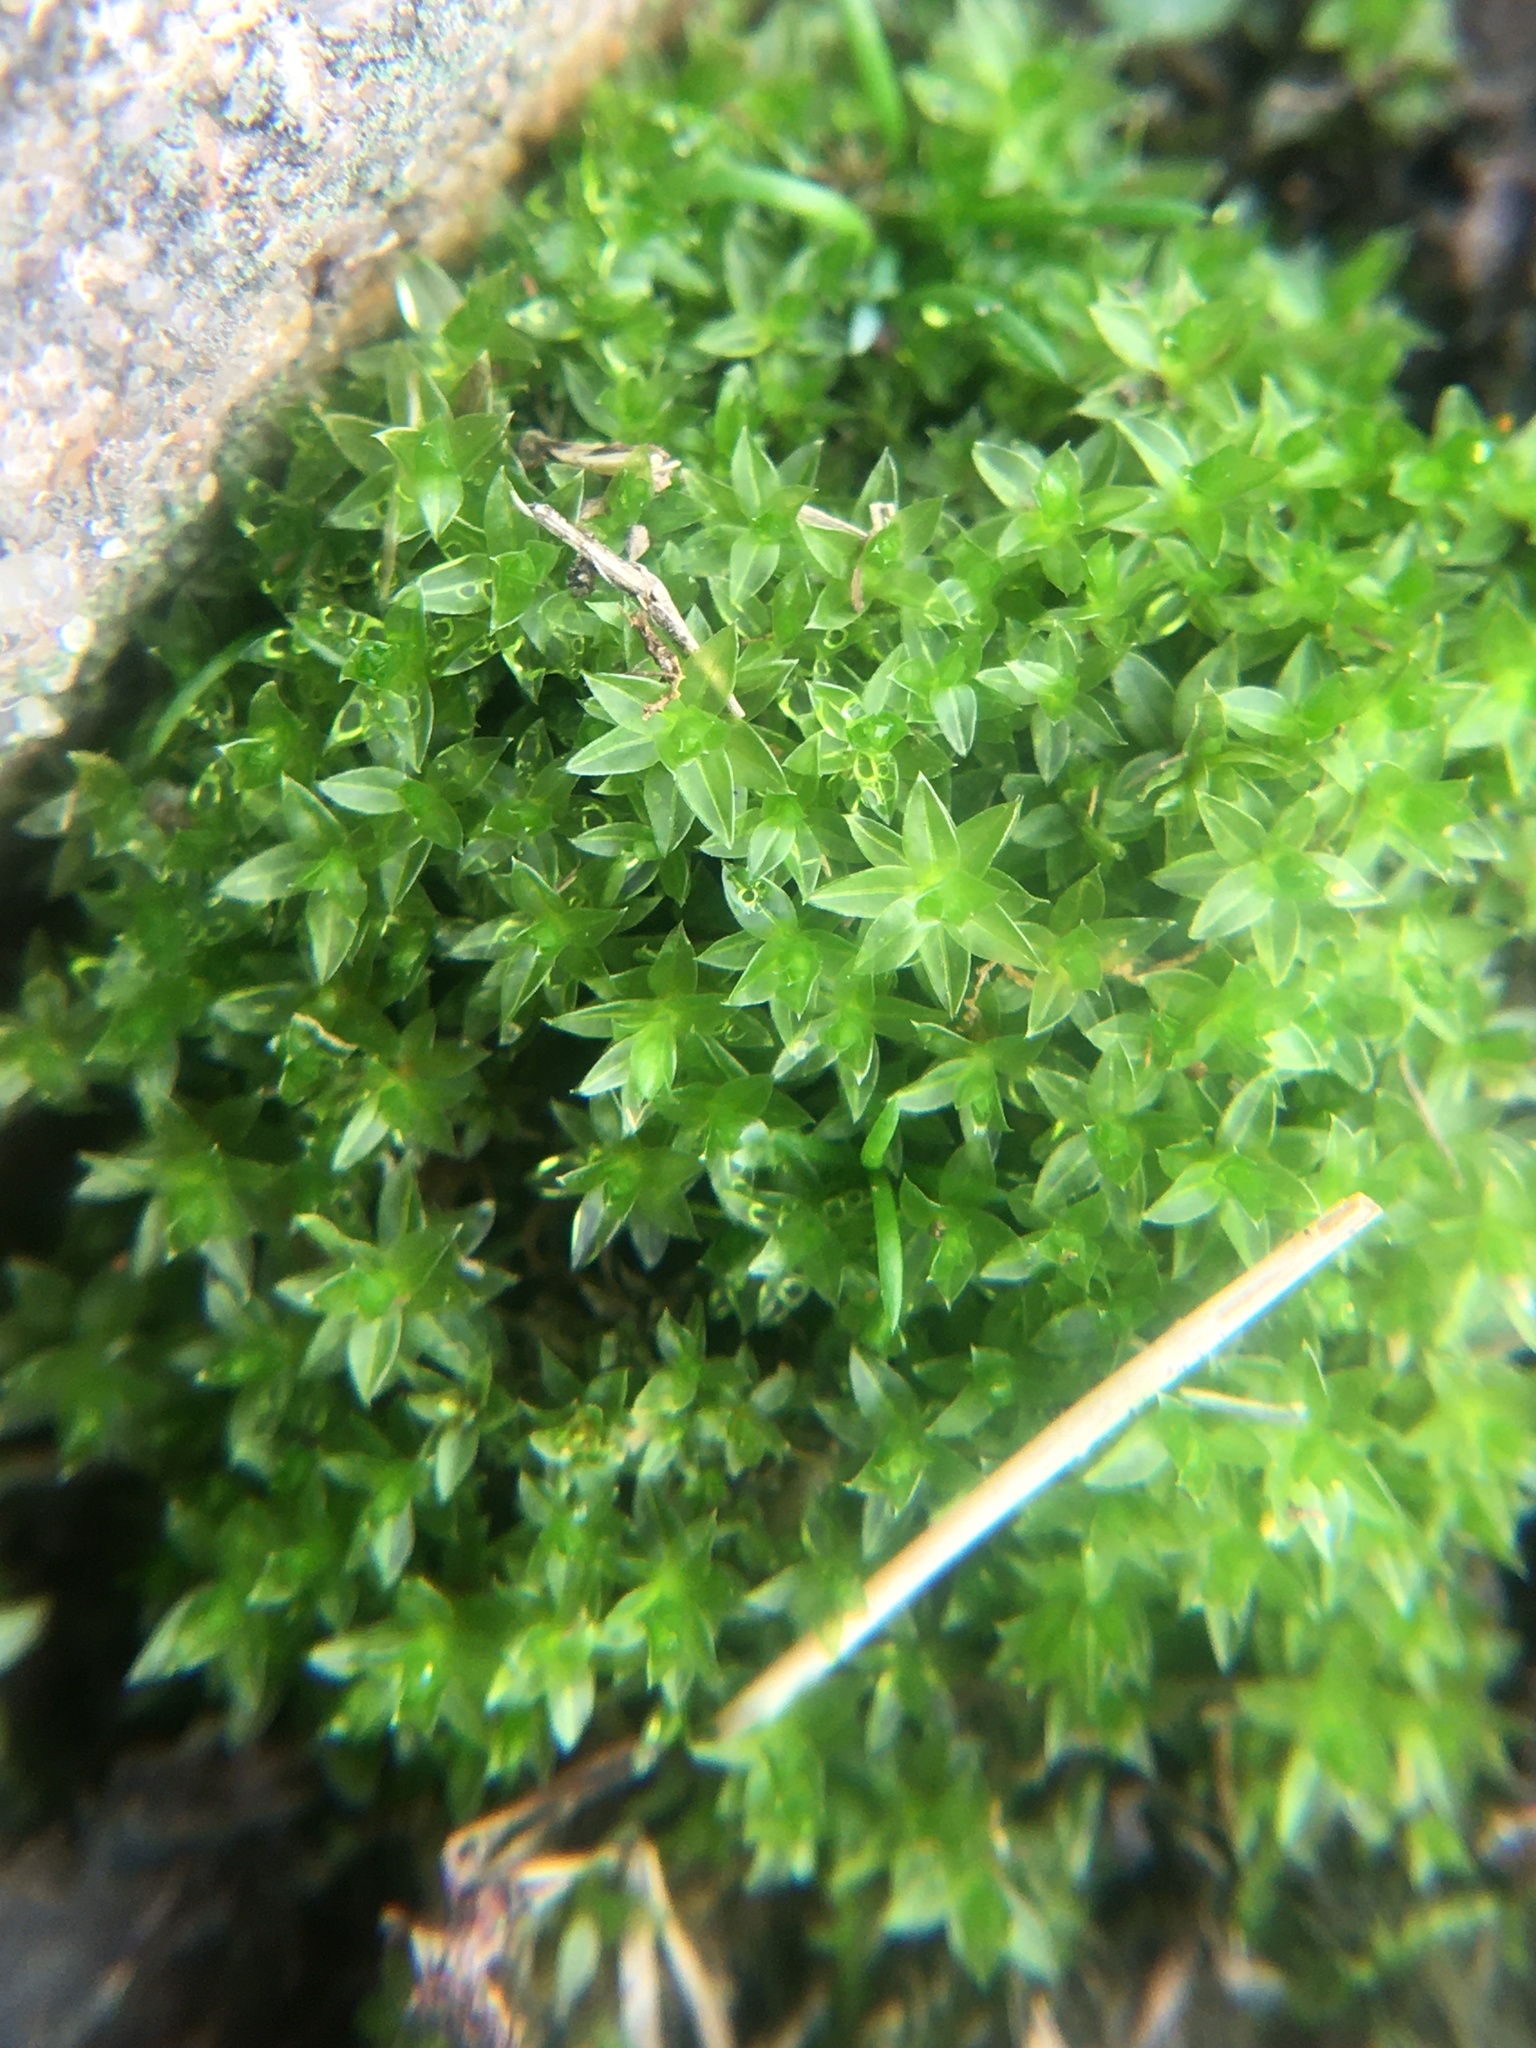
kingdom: Plantae
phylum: Bryophyta
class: Bryopsida
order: Pottiales
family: Pottiaceae
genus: Hyophila
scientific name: Hyophila involuta
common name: Hyophila moss
